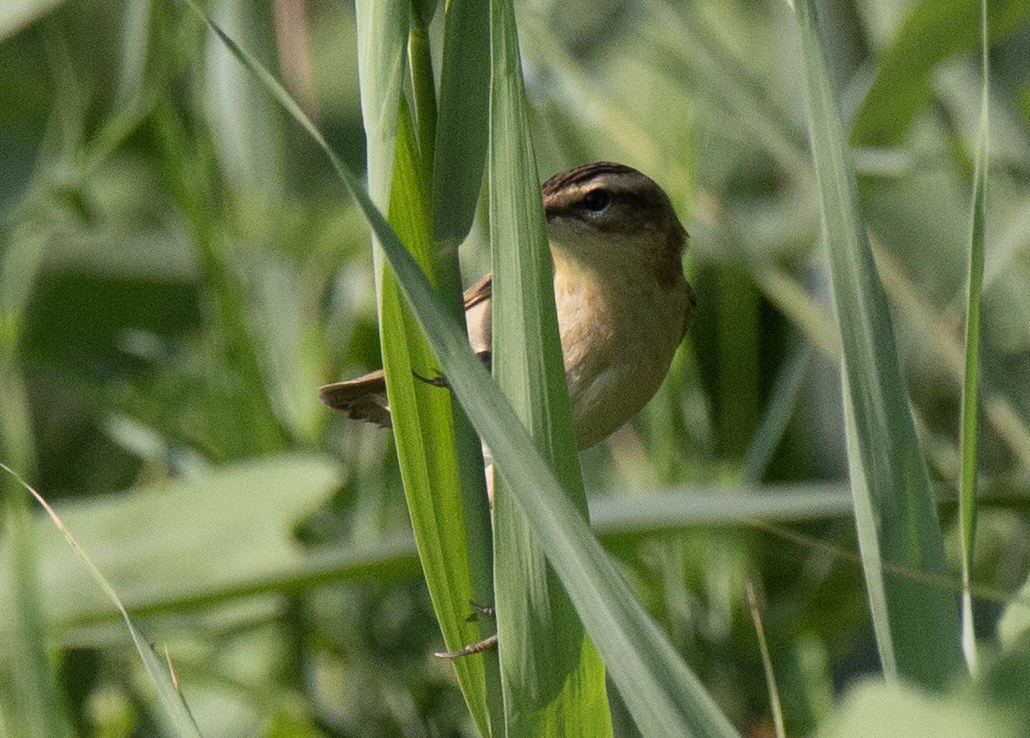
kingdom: Animalia
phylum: Chordata
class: Aves
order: Passeriformes
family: Acrocephalidae
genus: Acrocephalus
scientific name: Acrocephalus schoenobaenus
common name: Sedge warbler
